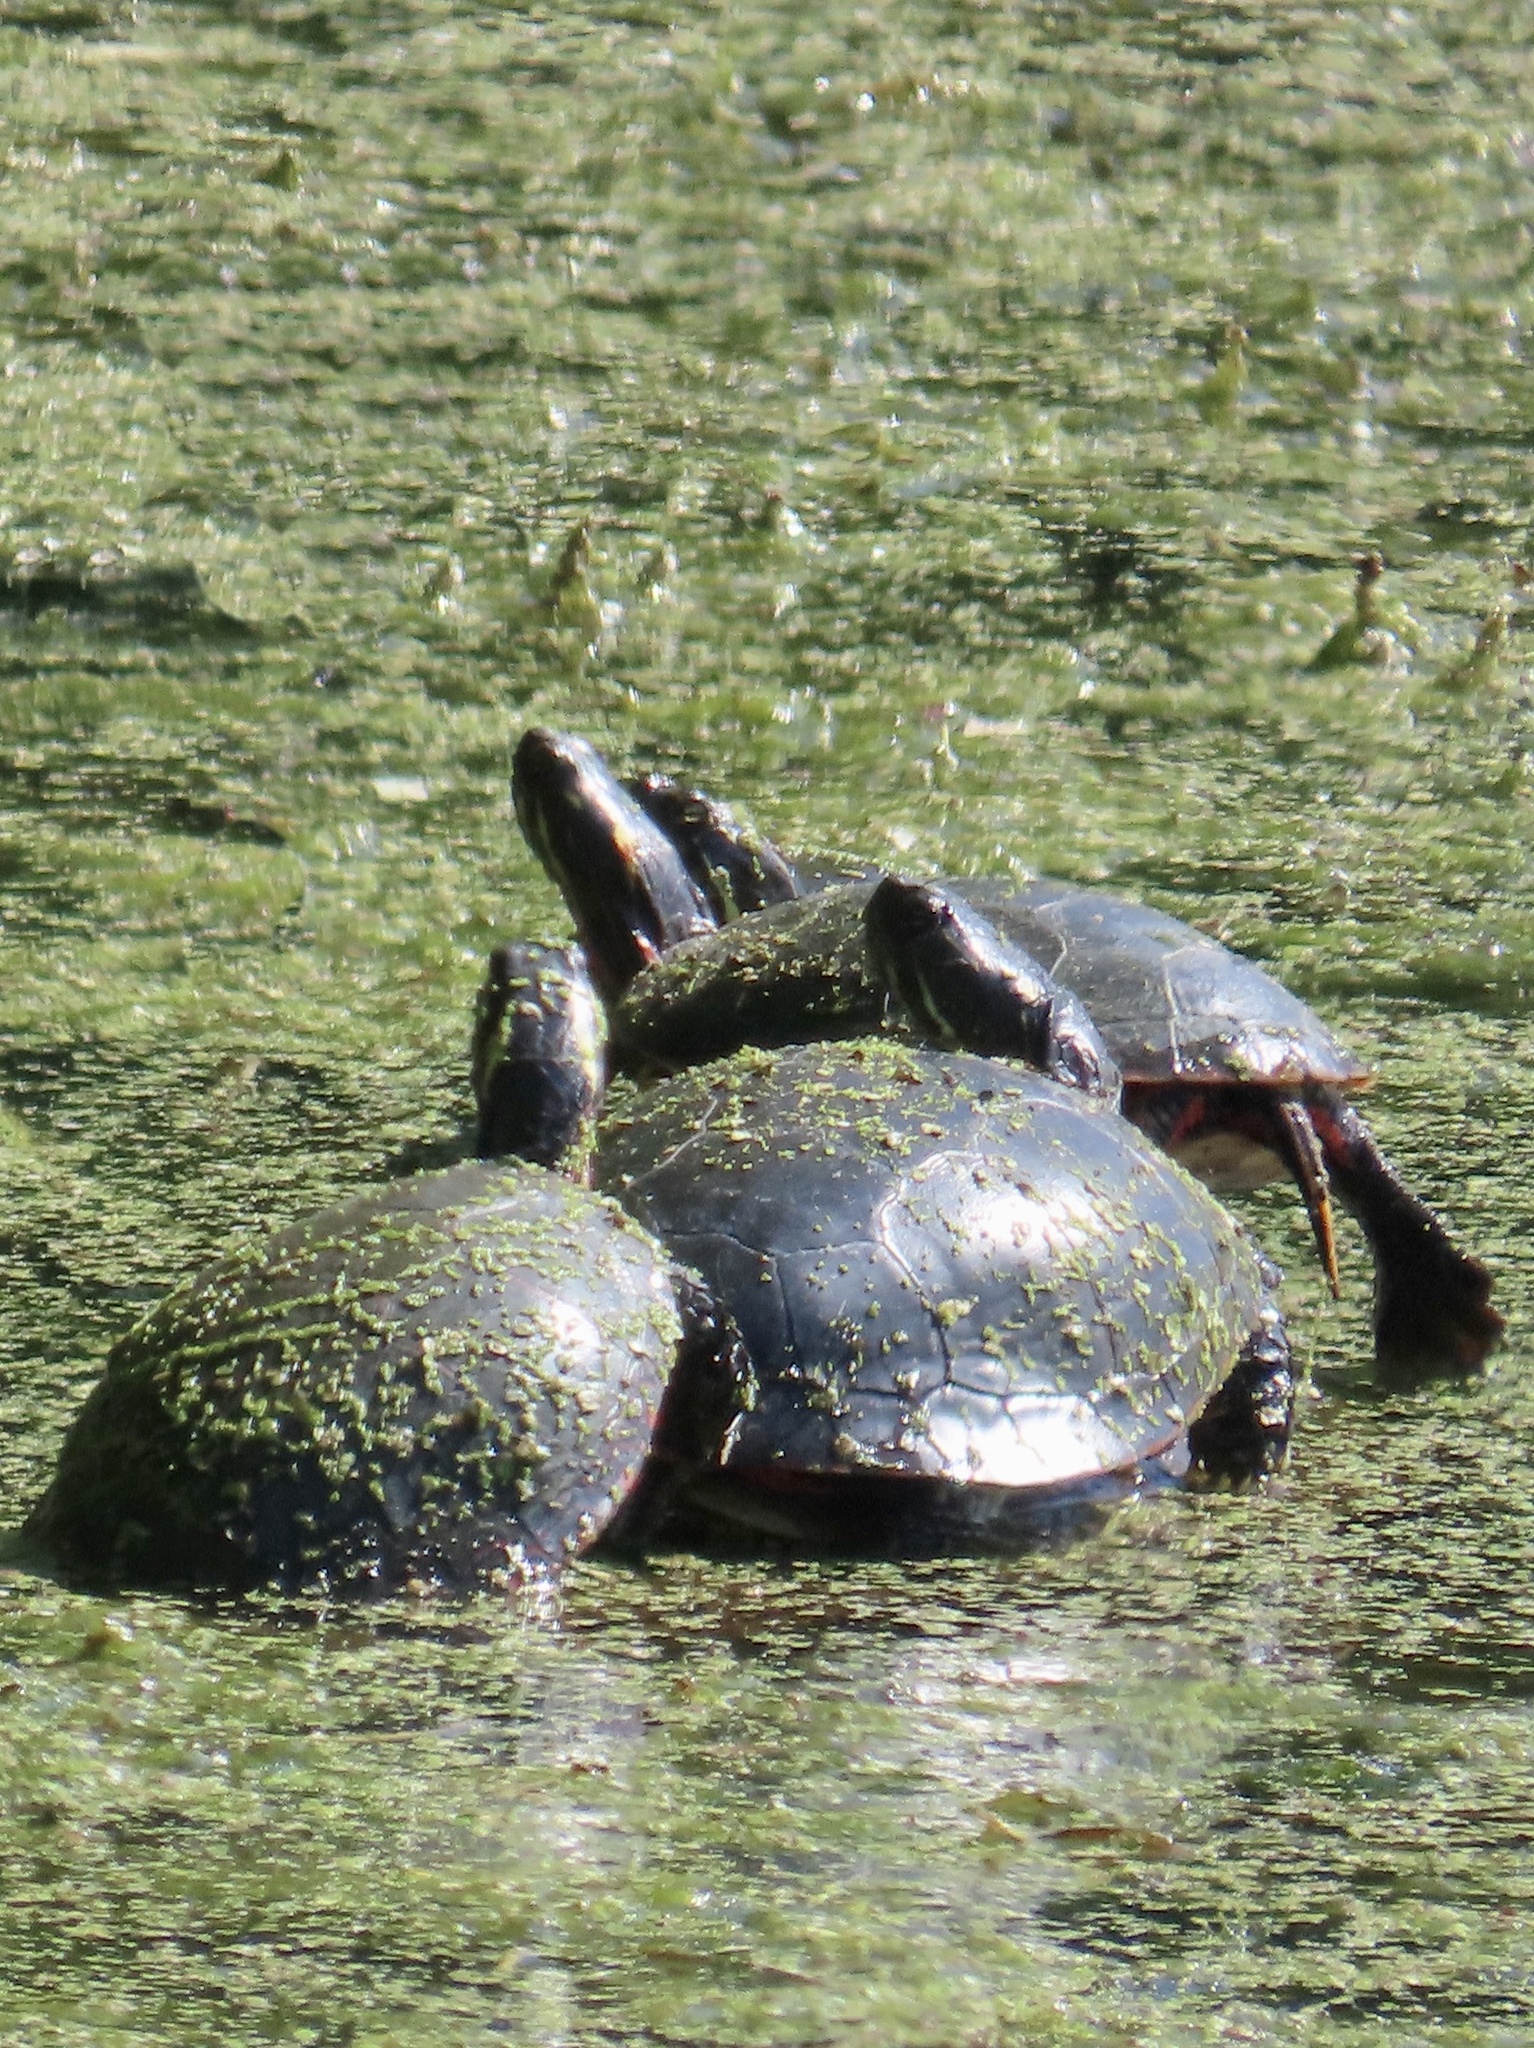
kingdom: Animalia
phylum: Chordata
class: Testudines
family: Emydidae
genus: Chrysemys
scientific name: Chrysemys picta
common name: Painted turtle
